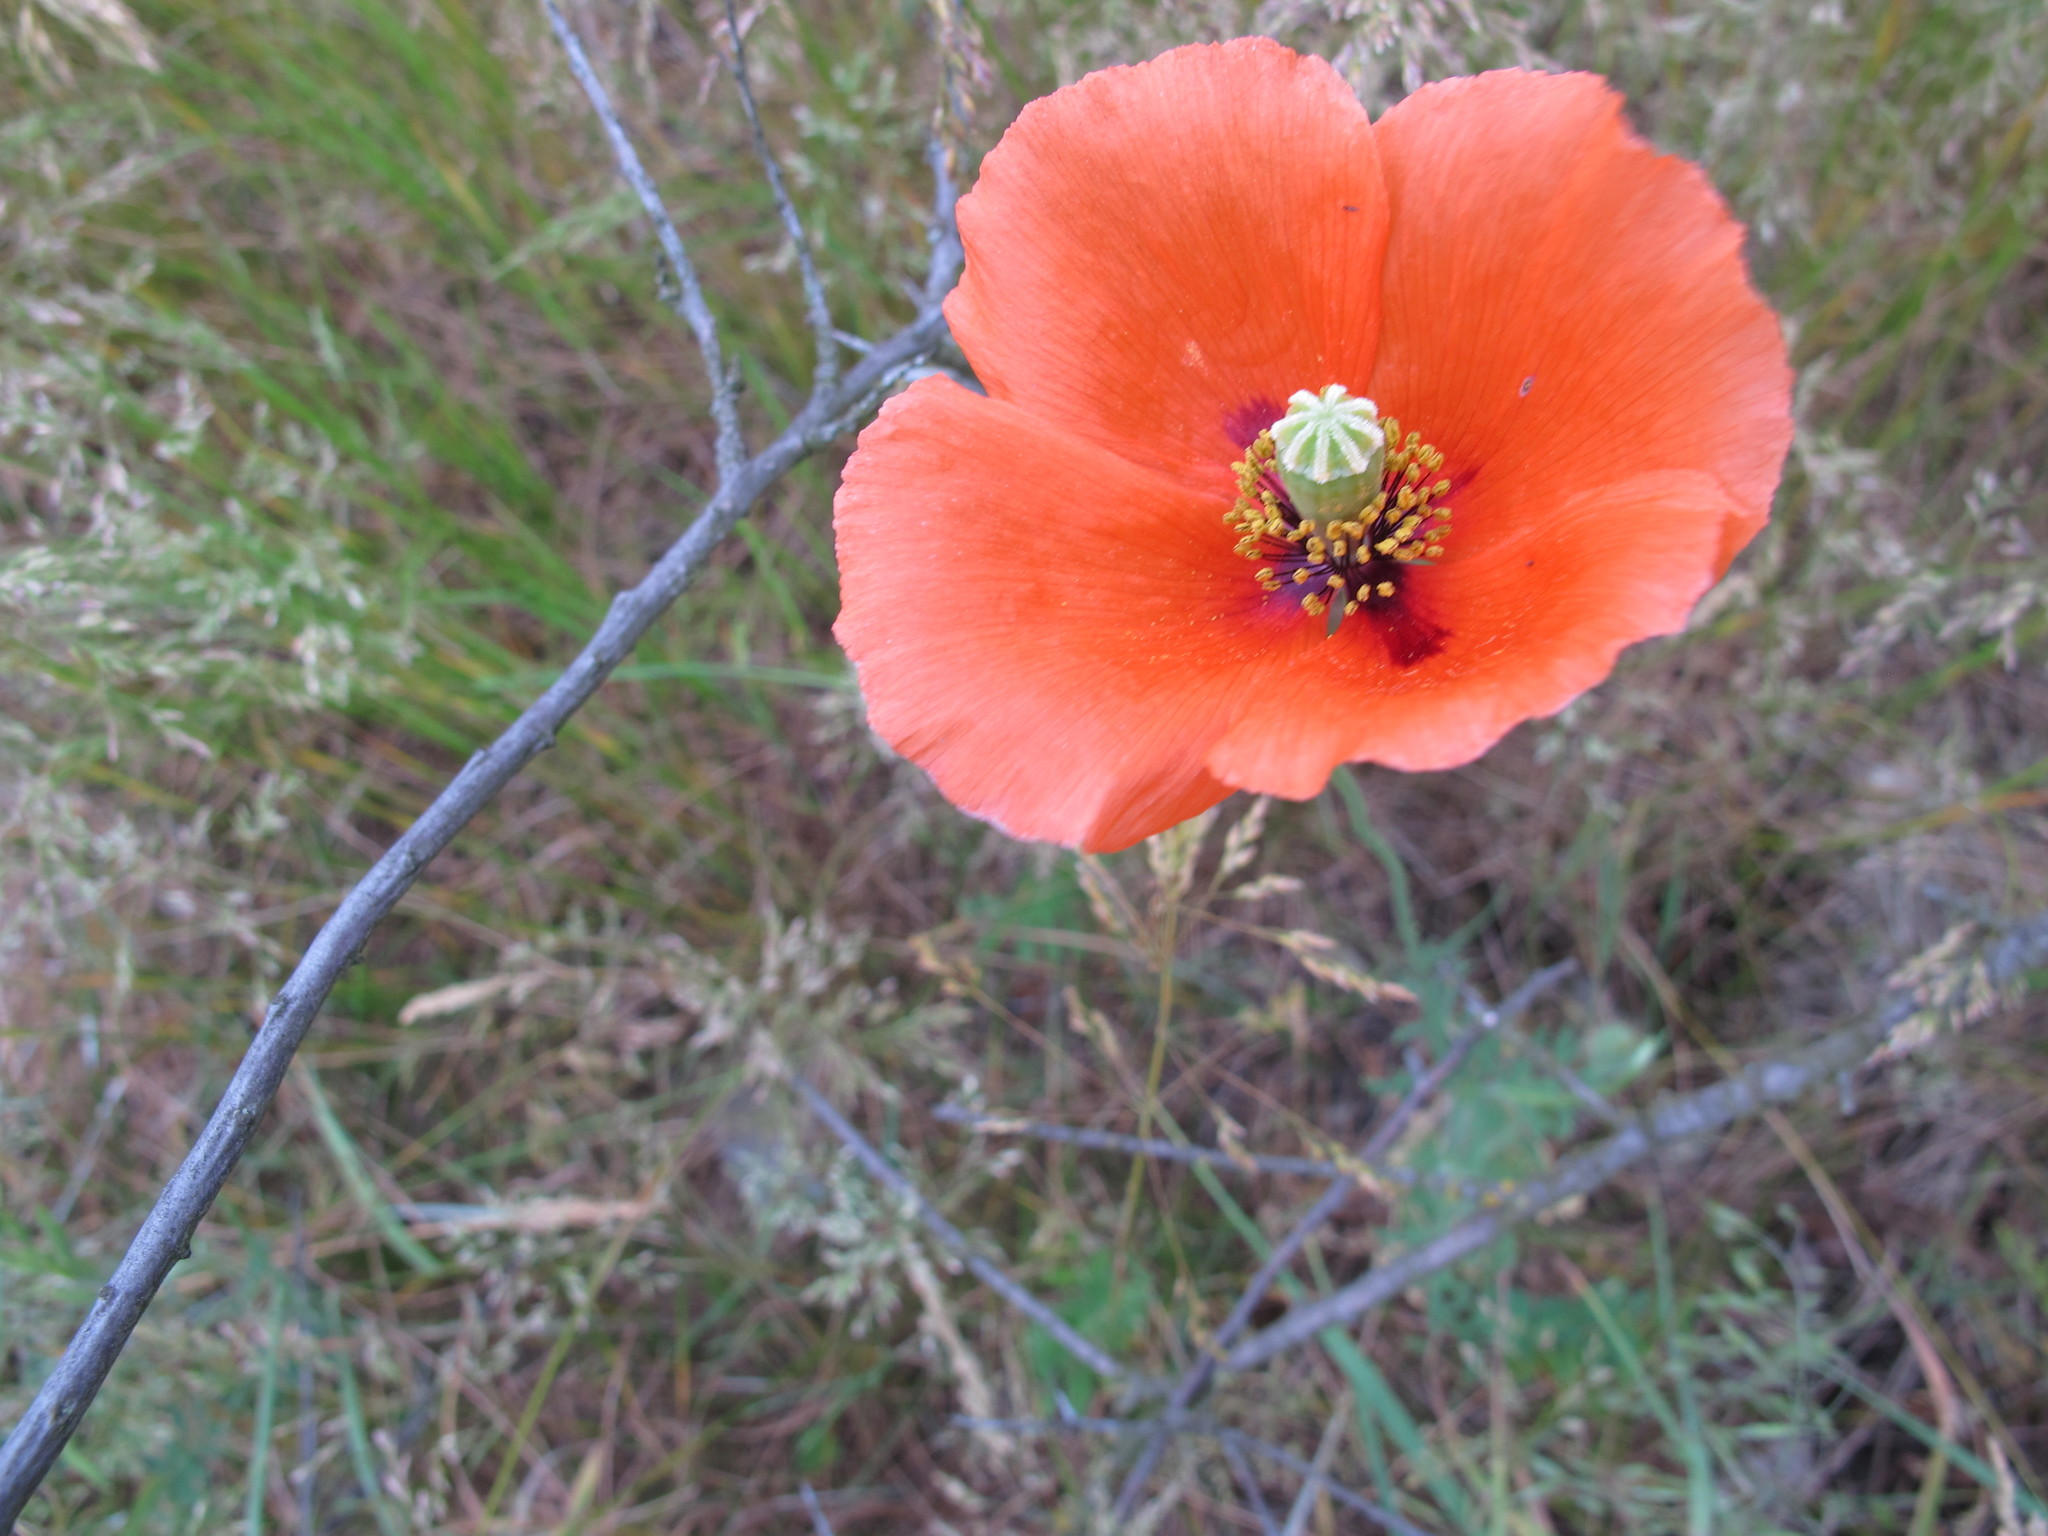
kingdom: Plantae
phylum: Tracheophyta
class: Magnoliopsida
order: Ranunculales
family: Papaveraceae
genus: Papaver
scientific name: Papaver dubium
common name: Long-headed poppy
